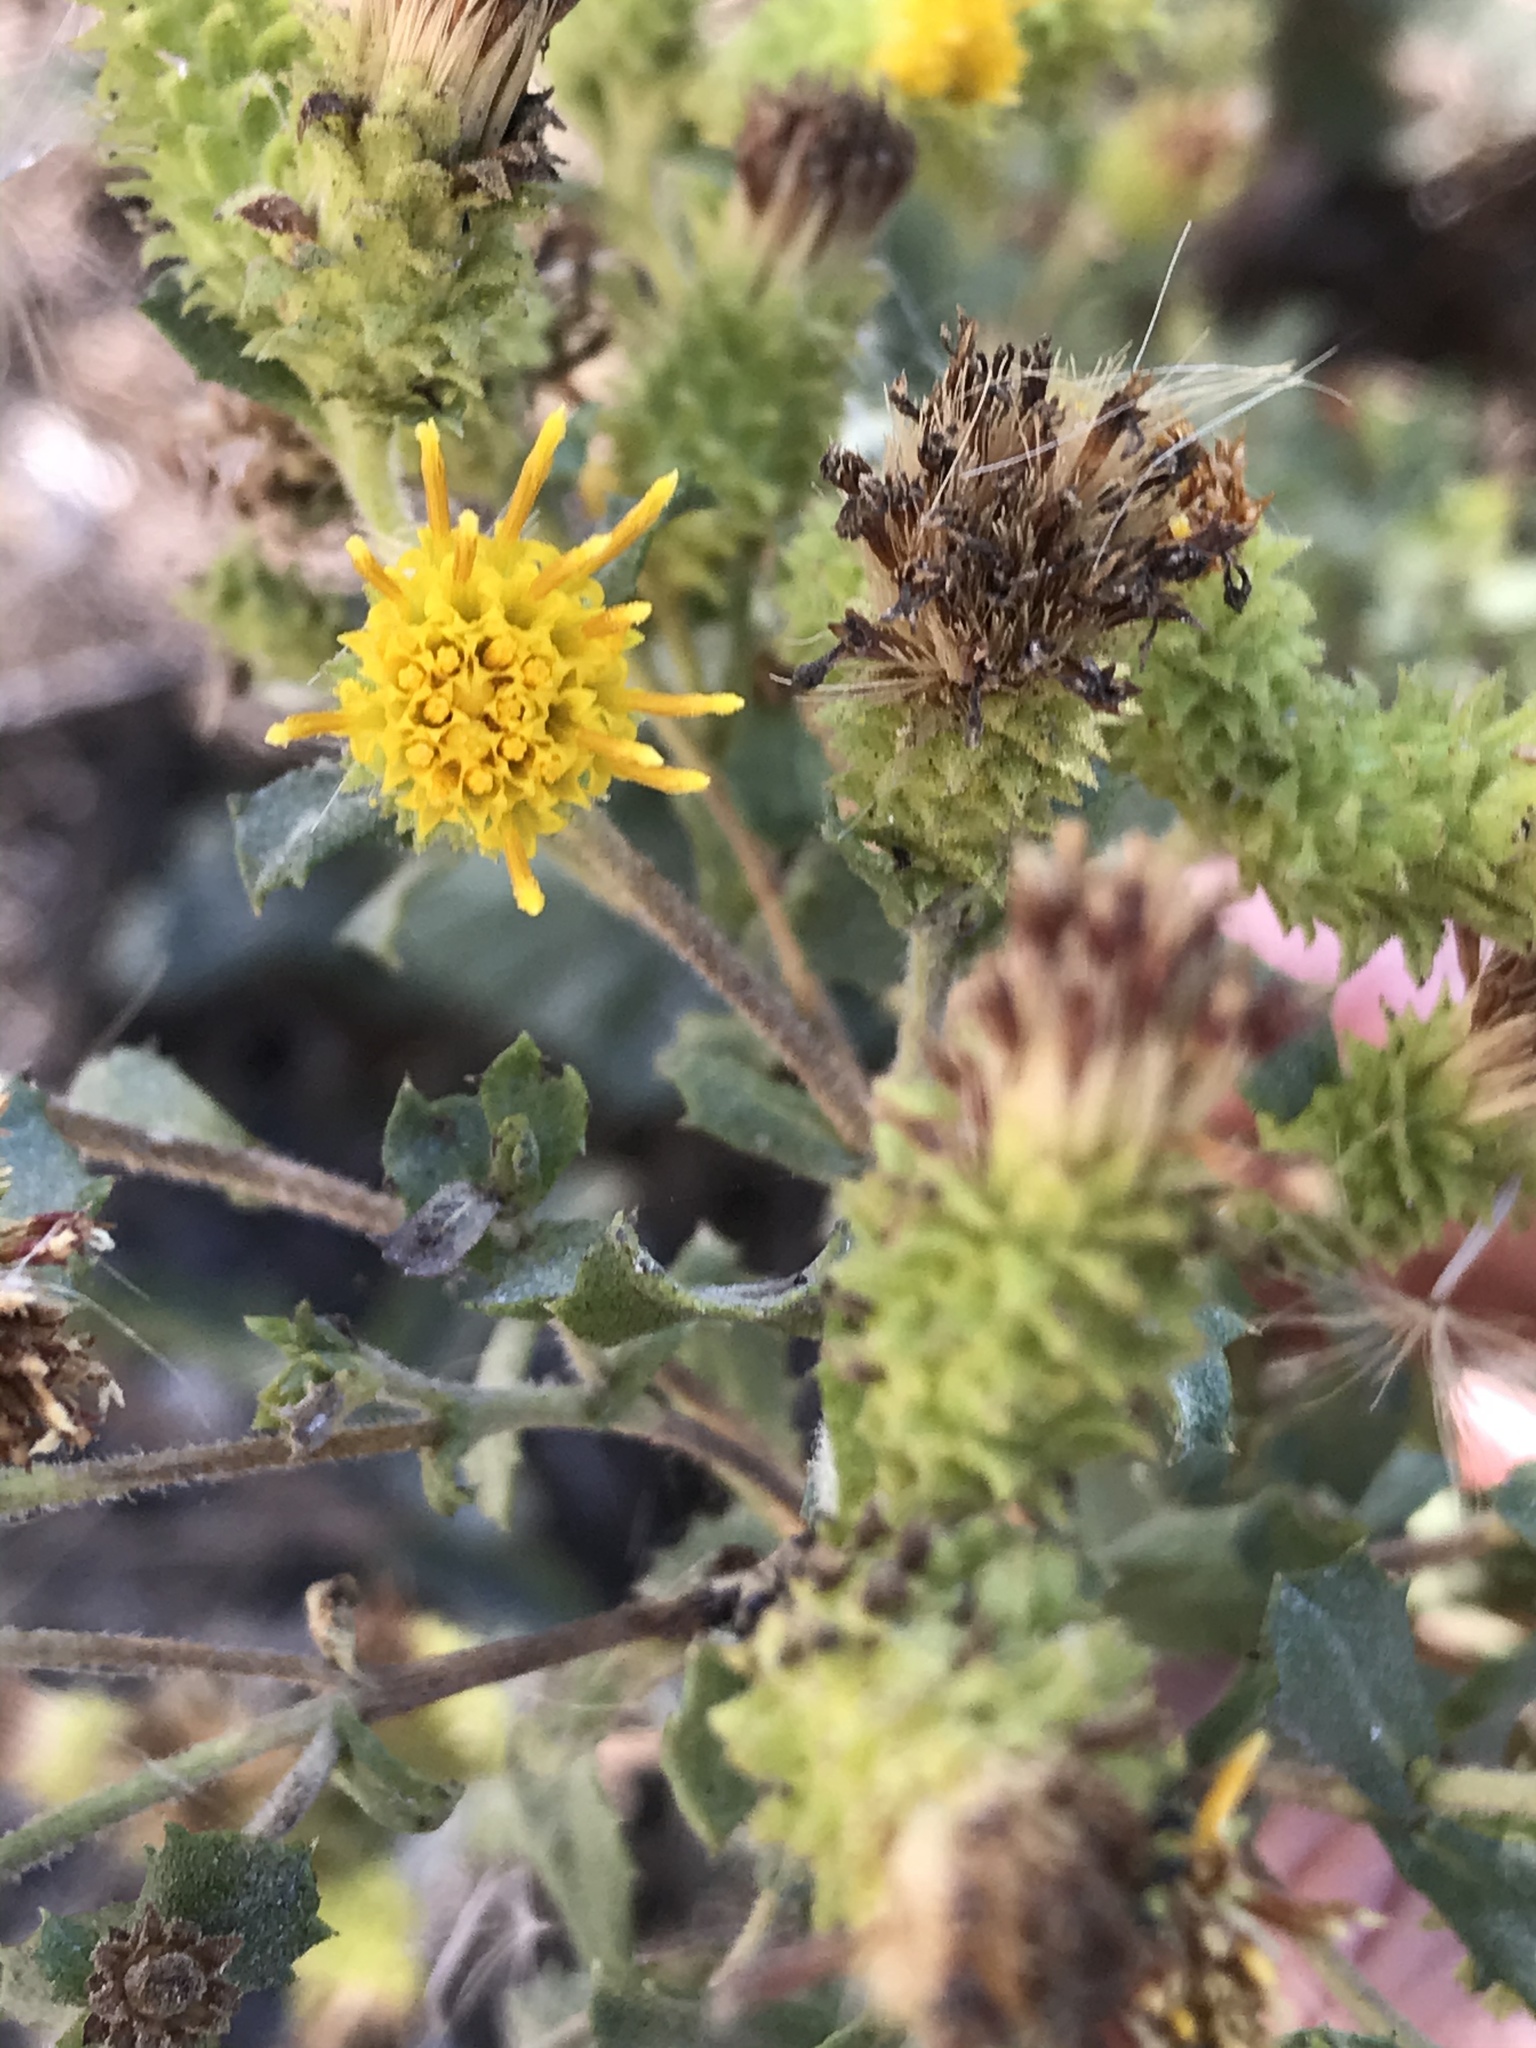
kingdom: Plantae
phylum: Tracheophyta
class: Magnoliopsida
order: Asterales
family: Asteraceae
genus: Hazardia
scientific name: Hazardia squarrosa
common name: Saw-tooth goldenbush
